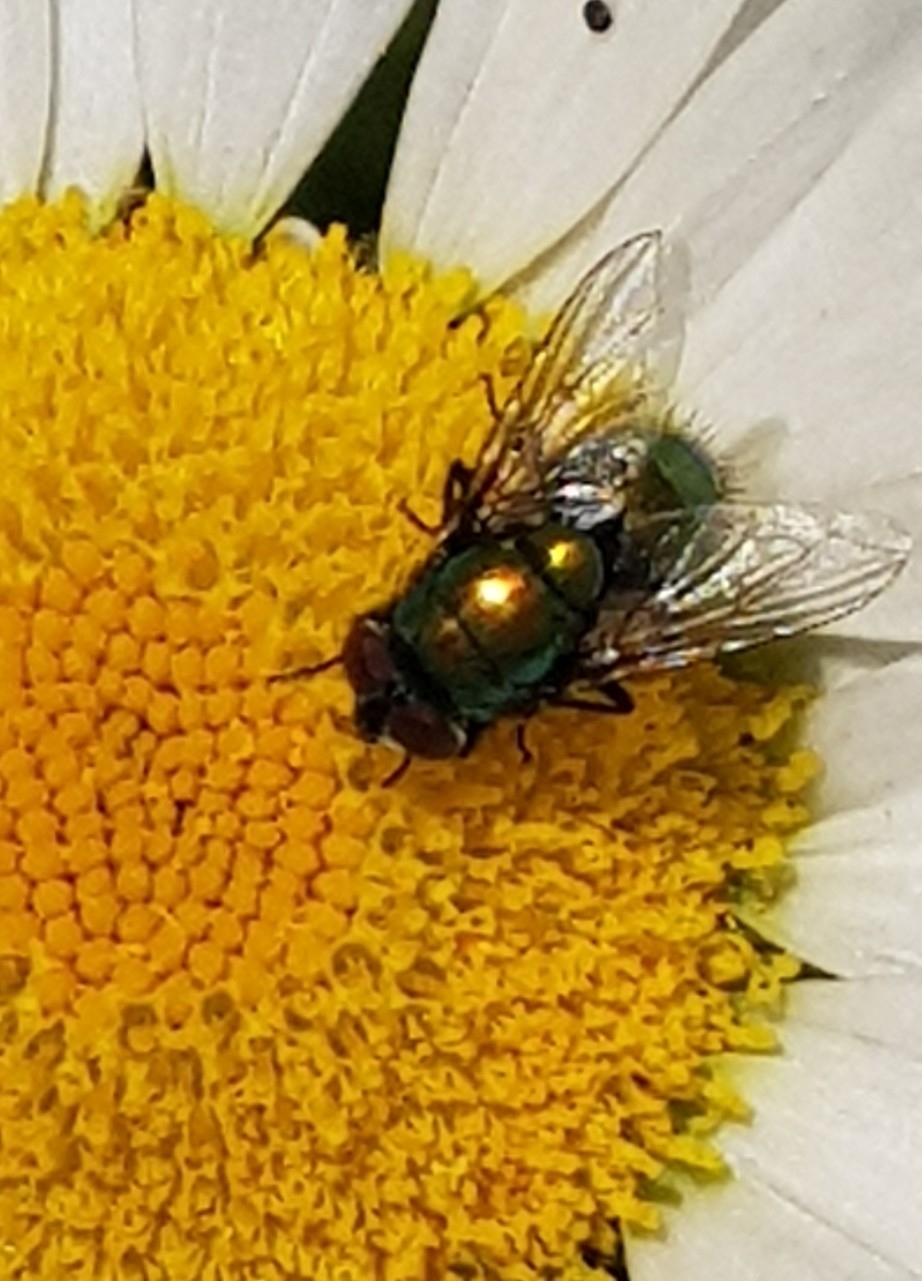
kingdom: Animalia
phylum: Arthropoda
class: Insecta
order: Diptera
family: Calliphoridae
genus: Lucilia
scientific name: Lucilia
